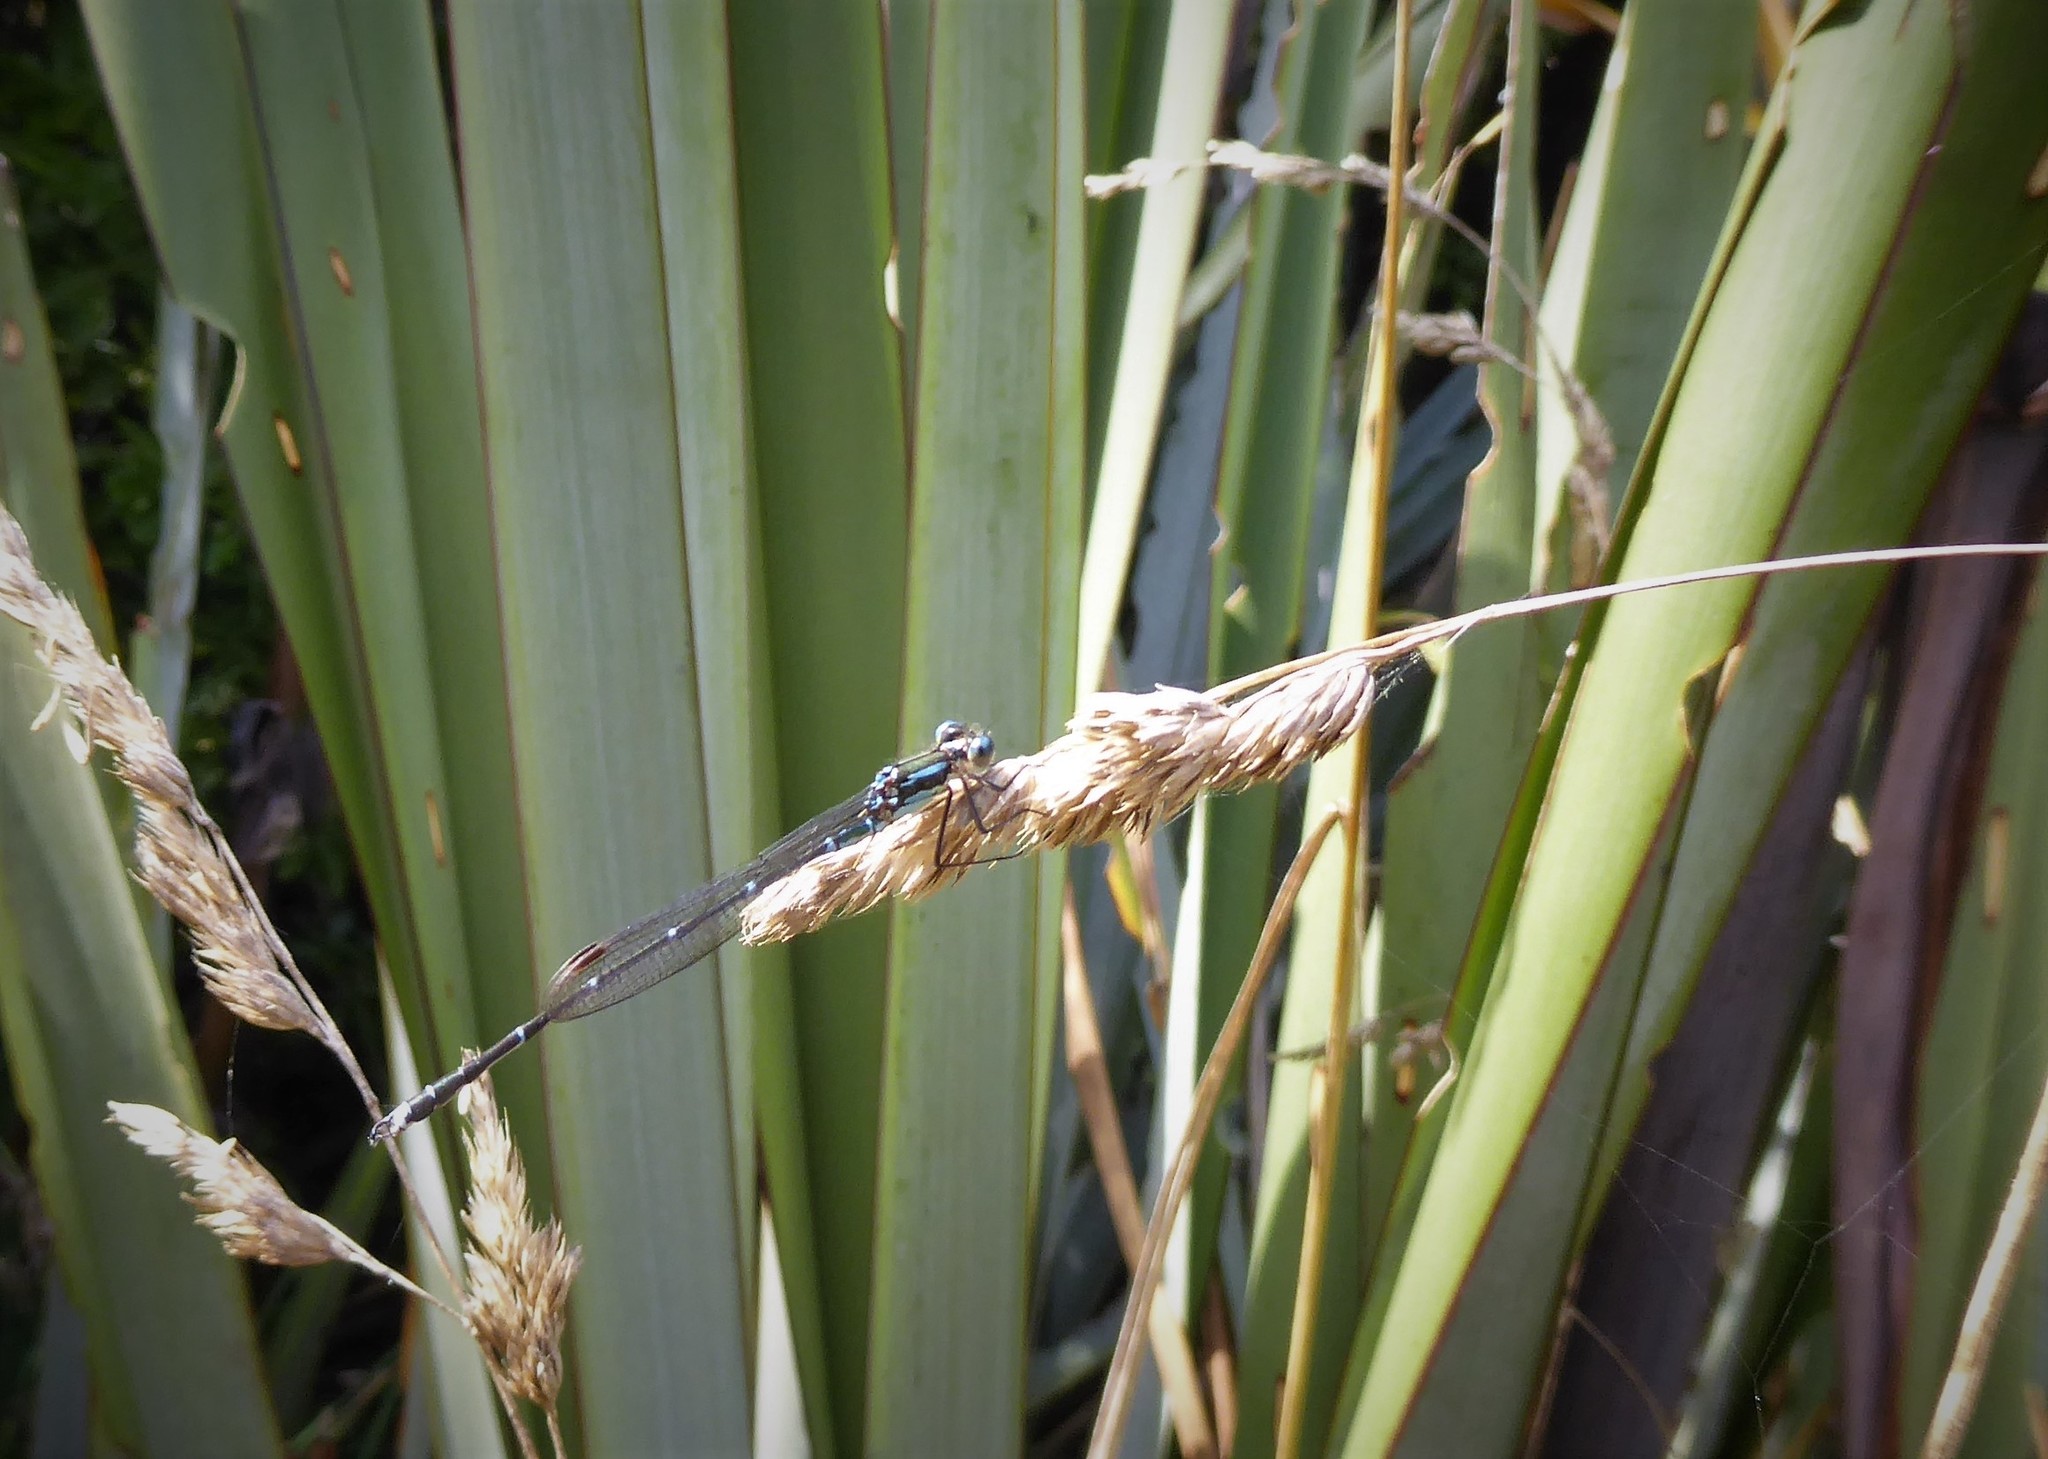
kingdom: Animalia
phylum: Arthropoda
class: Insecta
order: Odonata
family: Lestidae
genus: Austrolestes
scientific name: Austrolestes colensonis
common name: Blue damselfly
